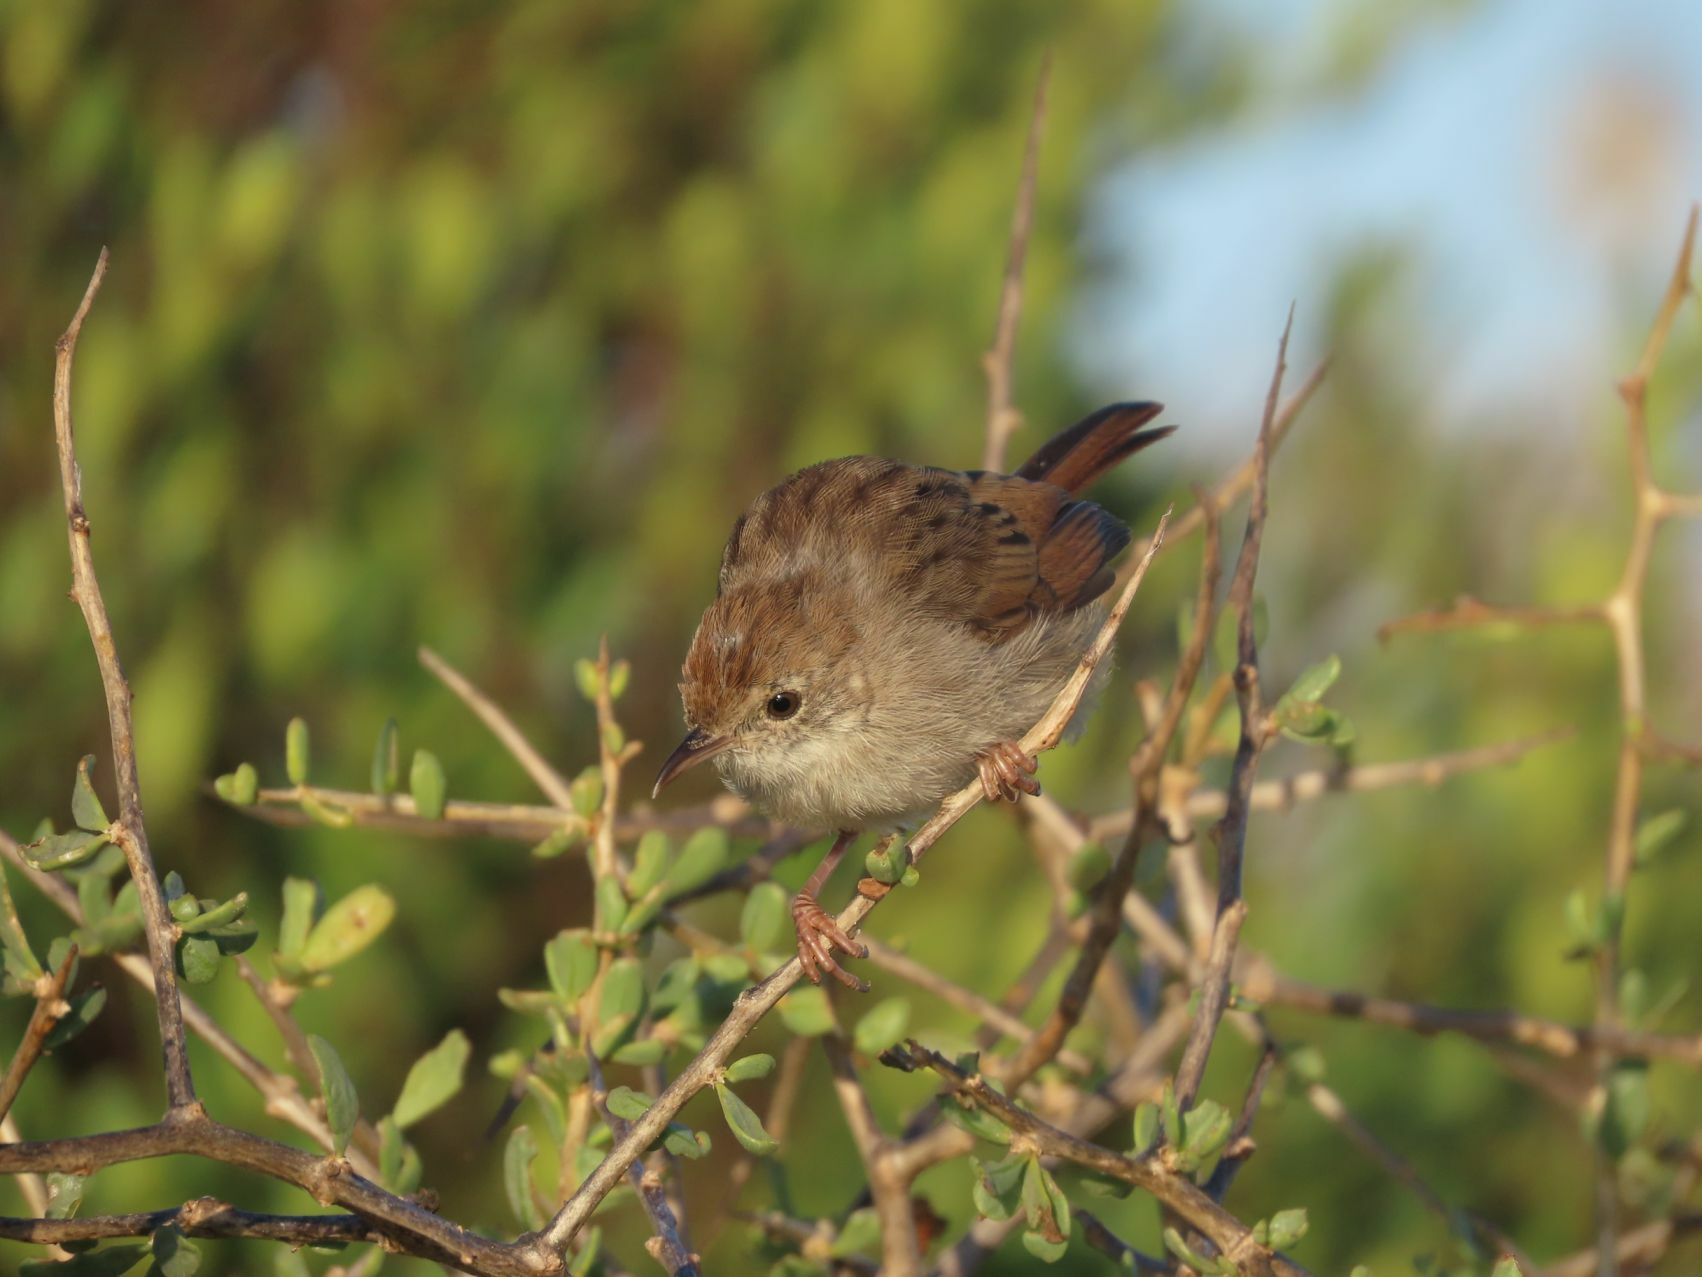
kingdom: Animalia
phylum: Chordata
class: Aves
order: Passeriformes
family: Cisticolidae
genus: Cisticola
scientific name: Cisticola subruficapilla
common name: Grey-backed cisticola
